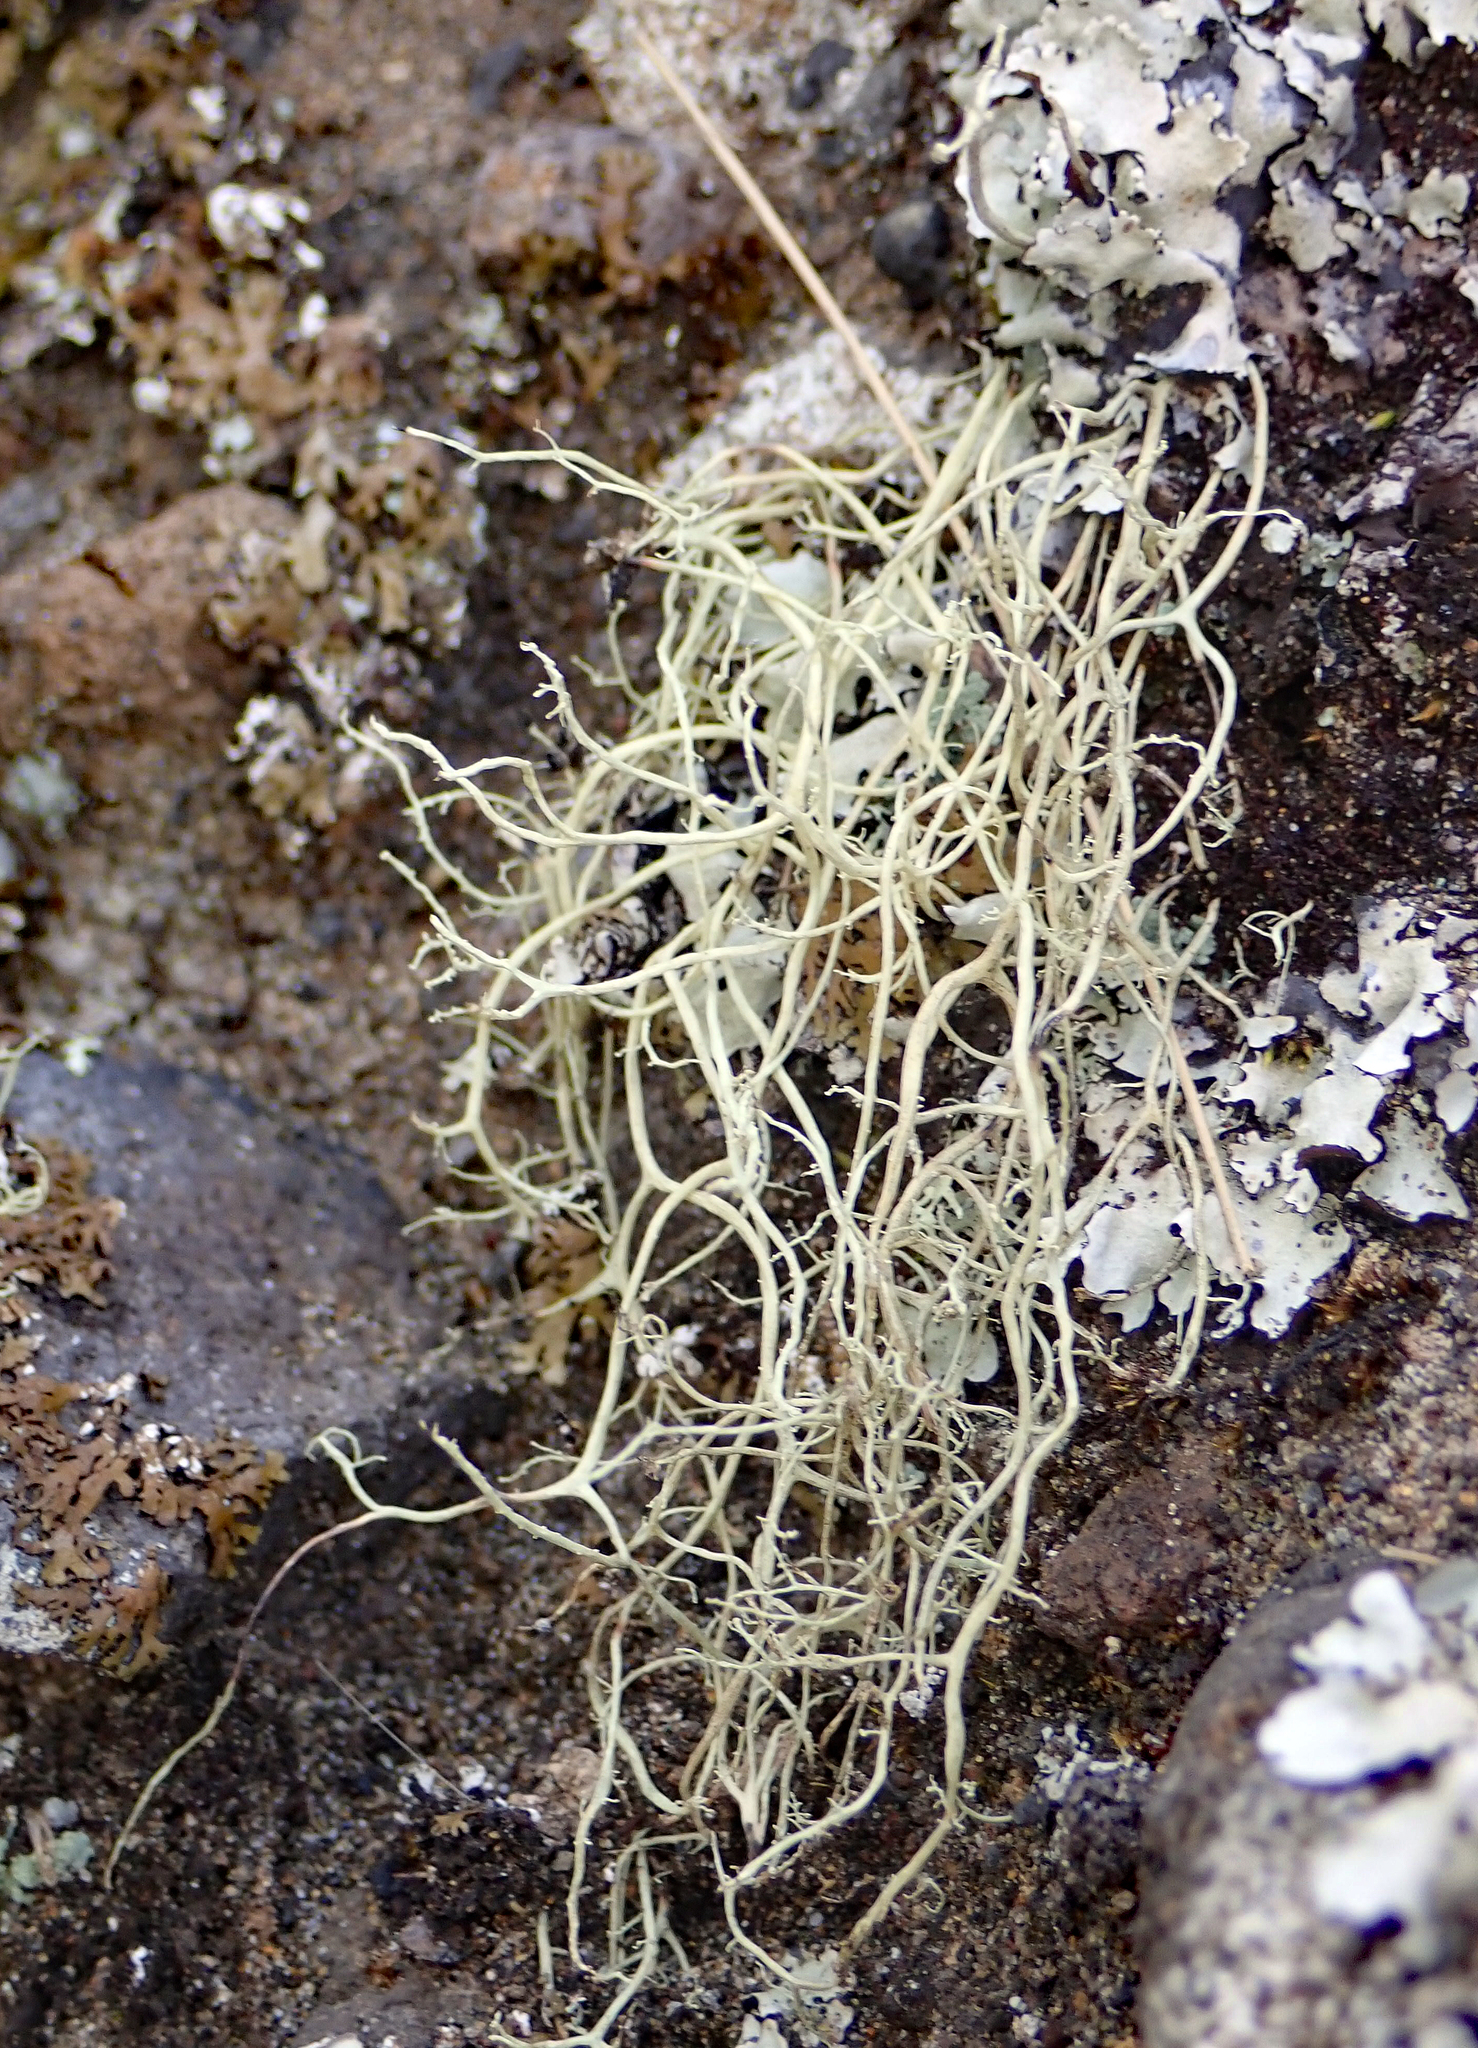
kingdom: Fungi
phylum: Ascomycota
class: Lecanoromycetes
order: Lecanorales
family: Ramalinaceae
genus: Ramalina
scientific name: Ramalina australiensis
